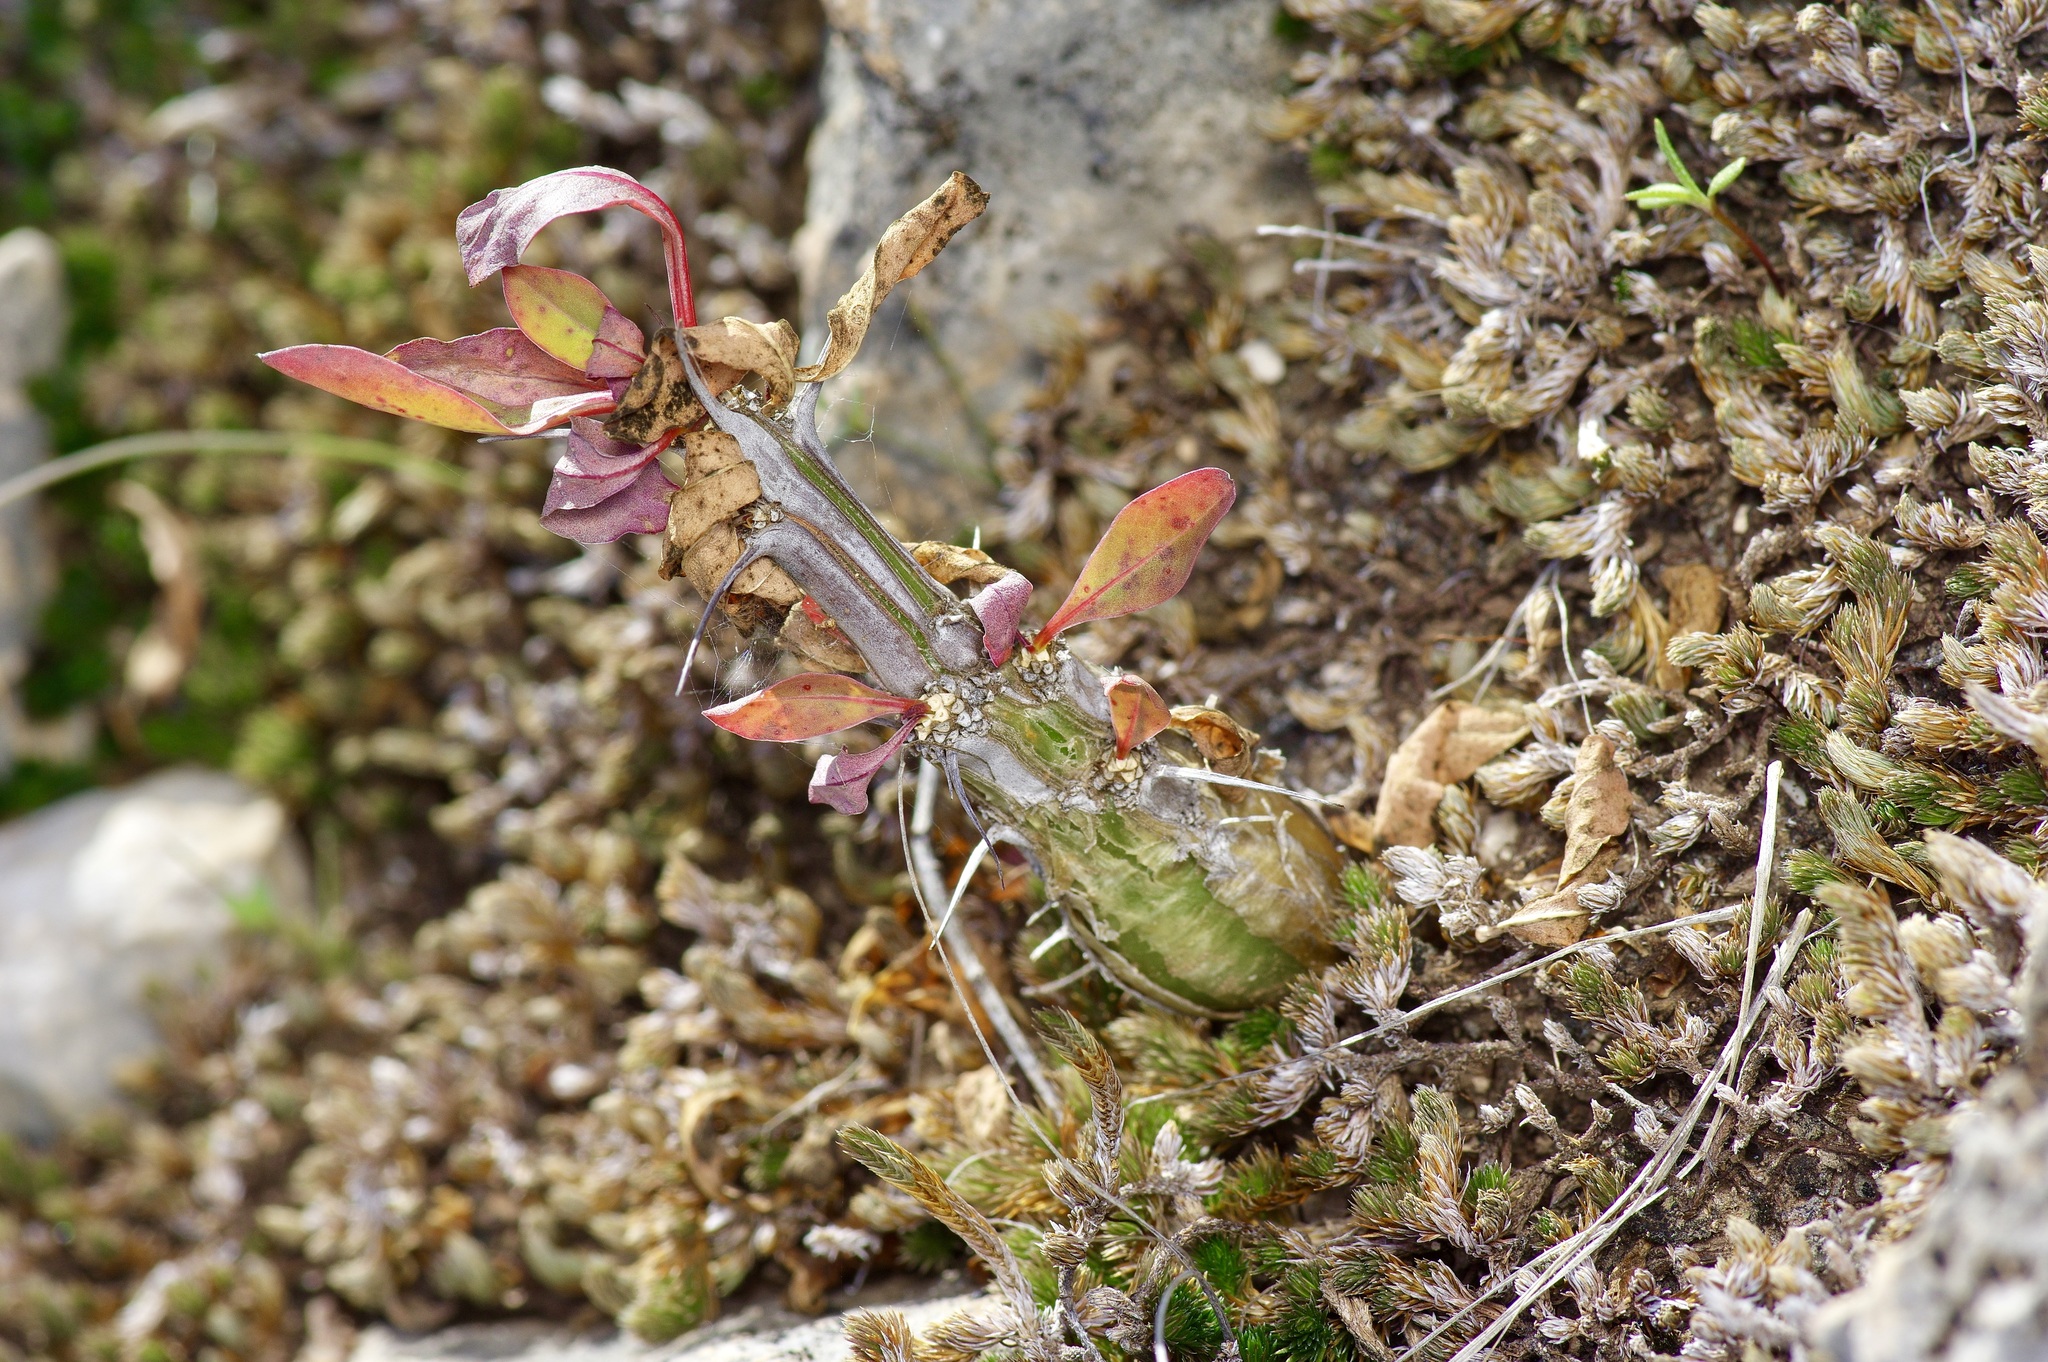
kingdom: Plantae
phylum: Tracheophyta
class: Magnoliopsida
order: Ericales
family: Fouquieriaceae
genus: Fouquieria
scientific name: Fouquieria splendens
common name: Vine-cactus
